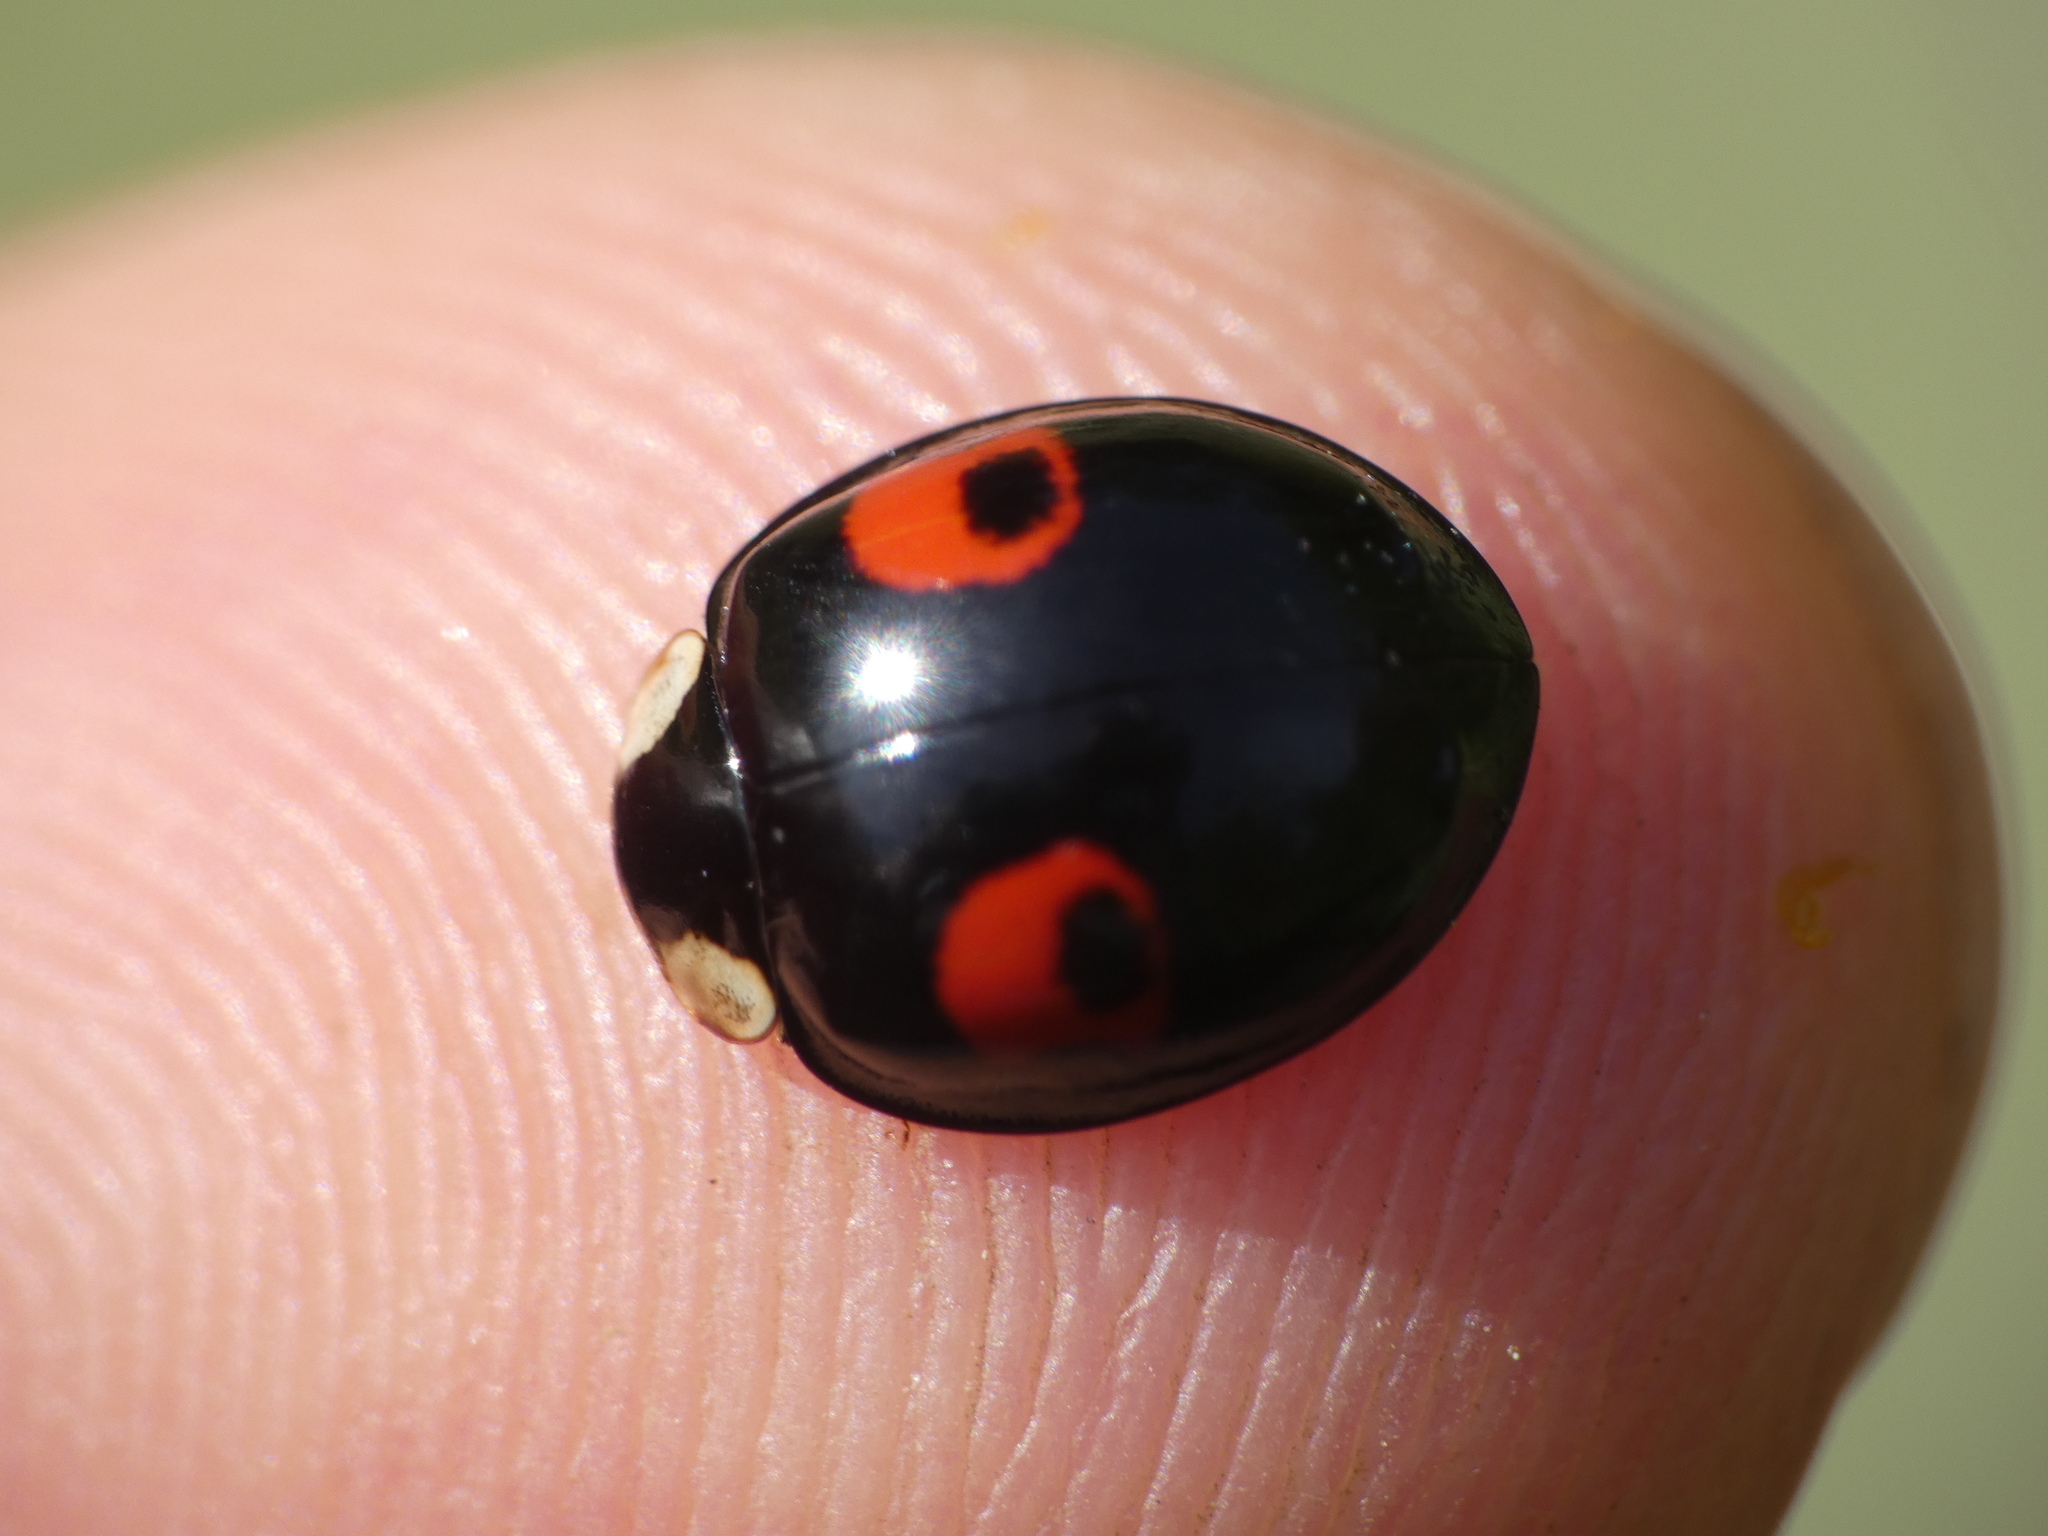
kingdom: Animalia
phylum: Arthropoda
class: Insecta
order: Coleoptera
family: Coccinellidae
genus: Harmonia
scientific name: Harmonia axyridis
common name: Harlequin ladybird
